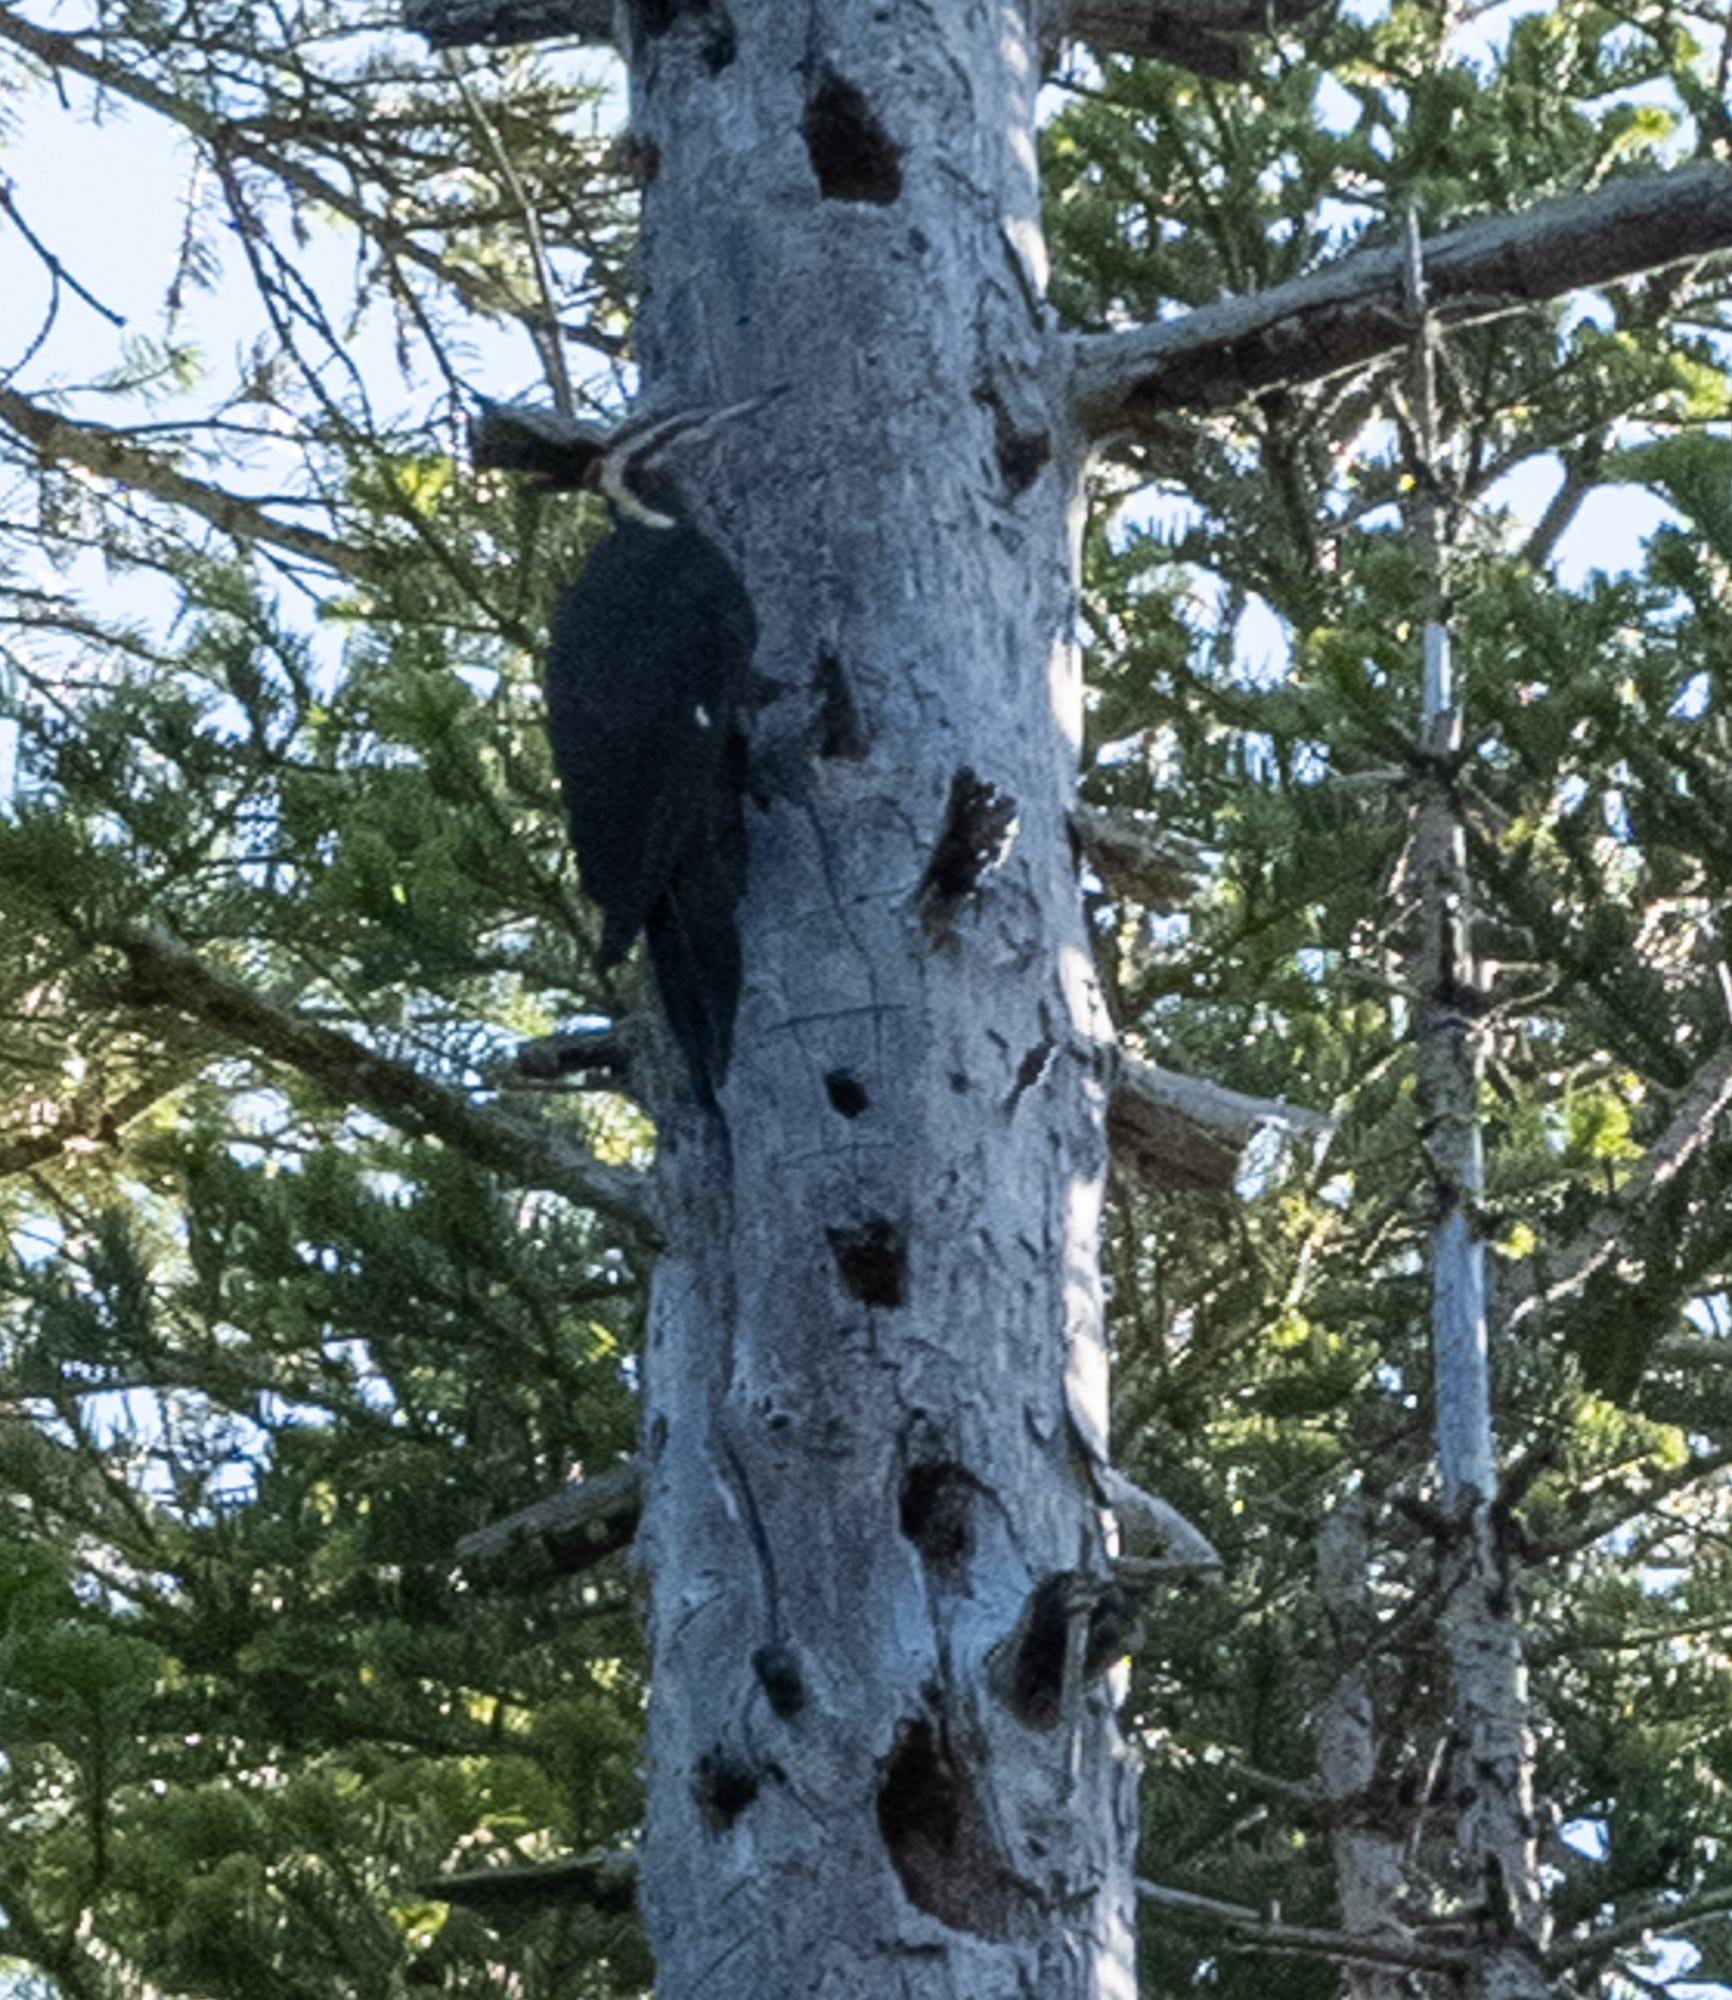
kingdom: Animalia
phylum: Chordata
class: Aves
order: Piciformes
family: Picidae
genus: Dryocopus
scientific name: Dryocopus pileatus
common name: Pileated woodpecker
